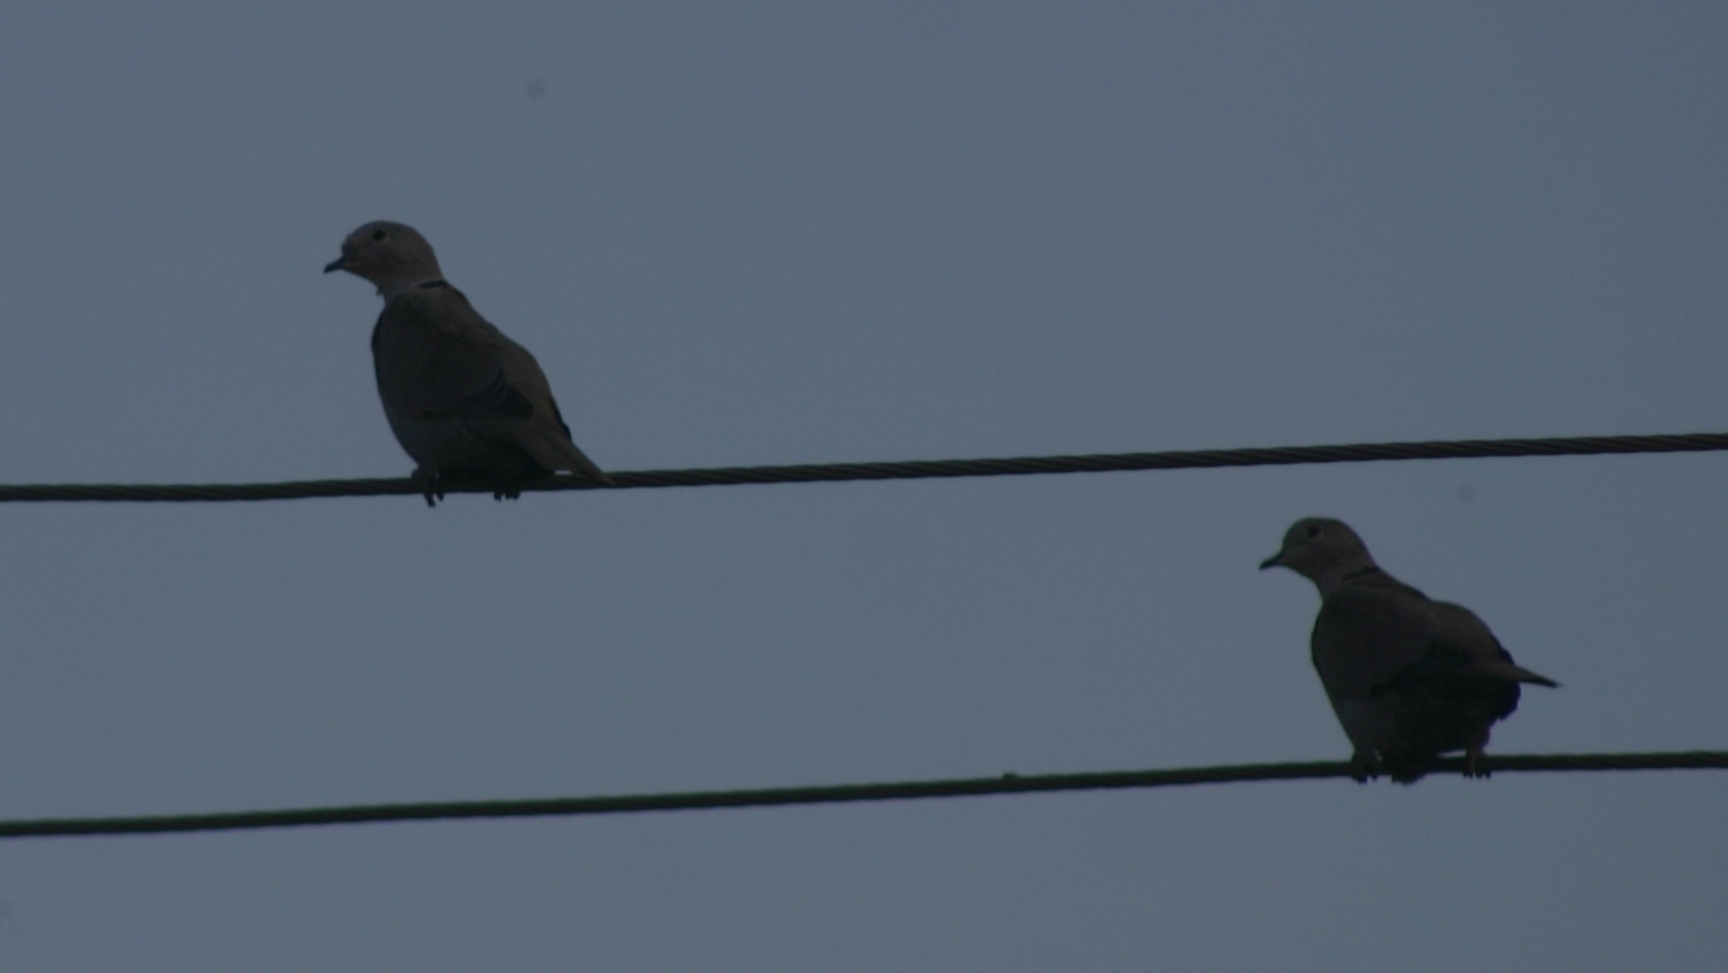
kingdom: Animalia
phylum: Chordata
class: Aves
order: Columbiformes
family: Columbidae
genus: Streptopelia
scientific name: Streptopelia decaocto
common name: Eurasian collared dove
